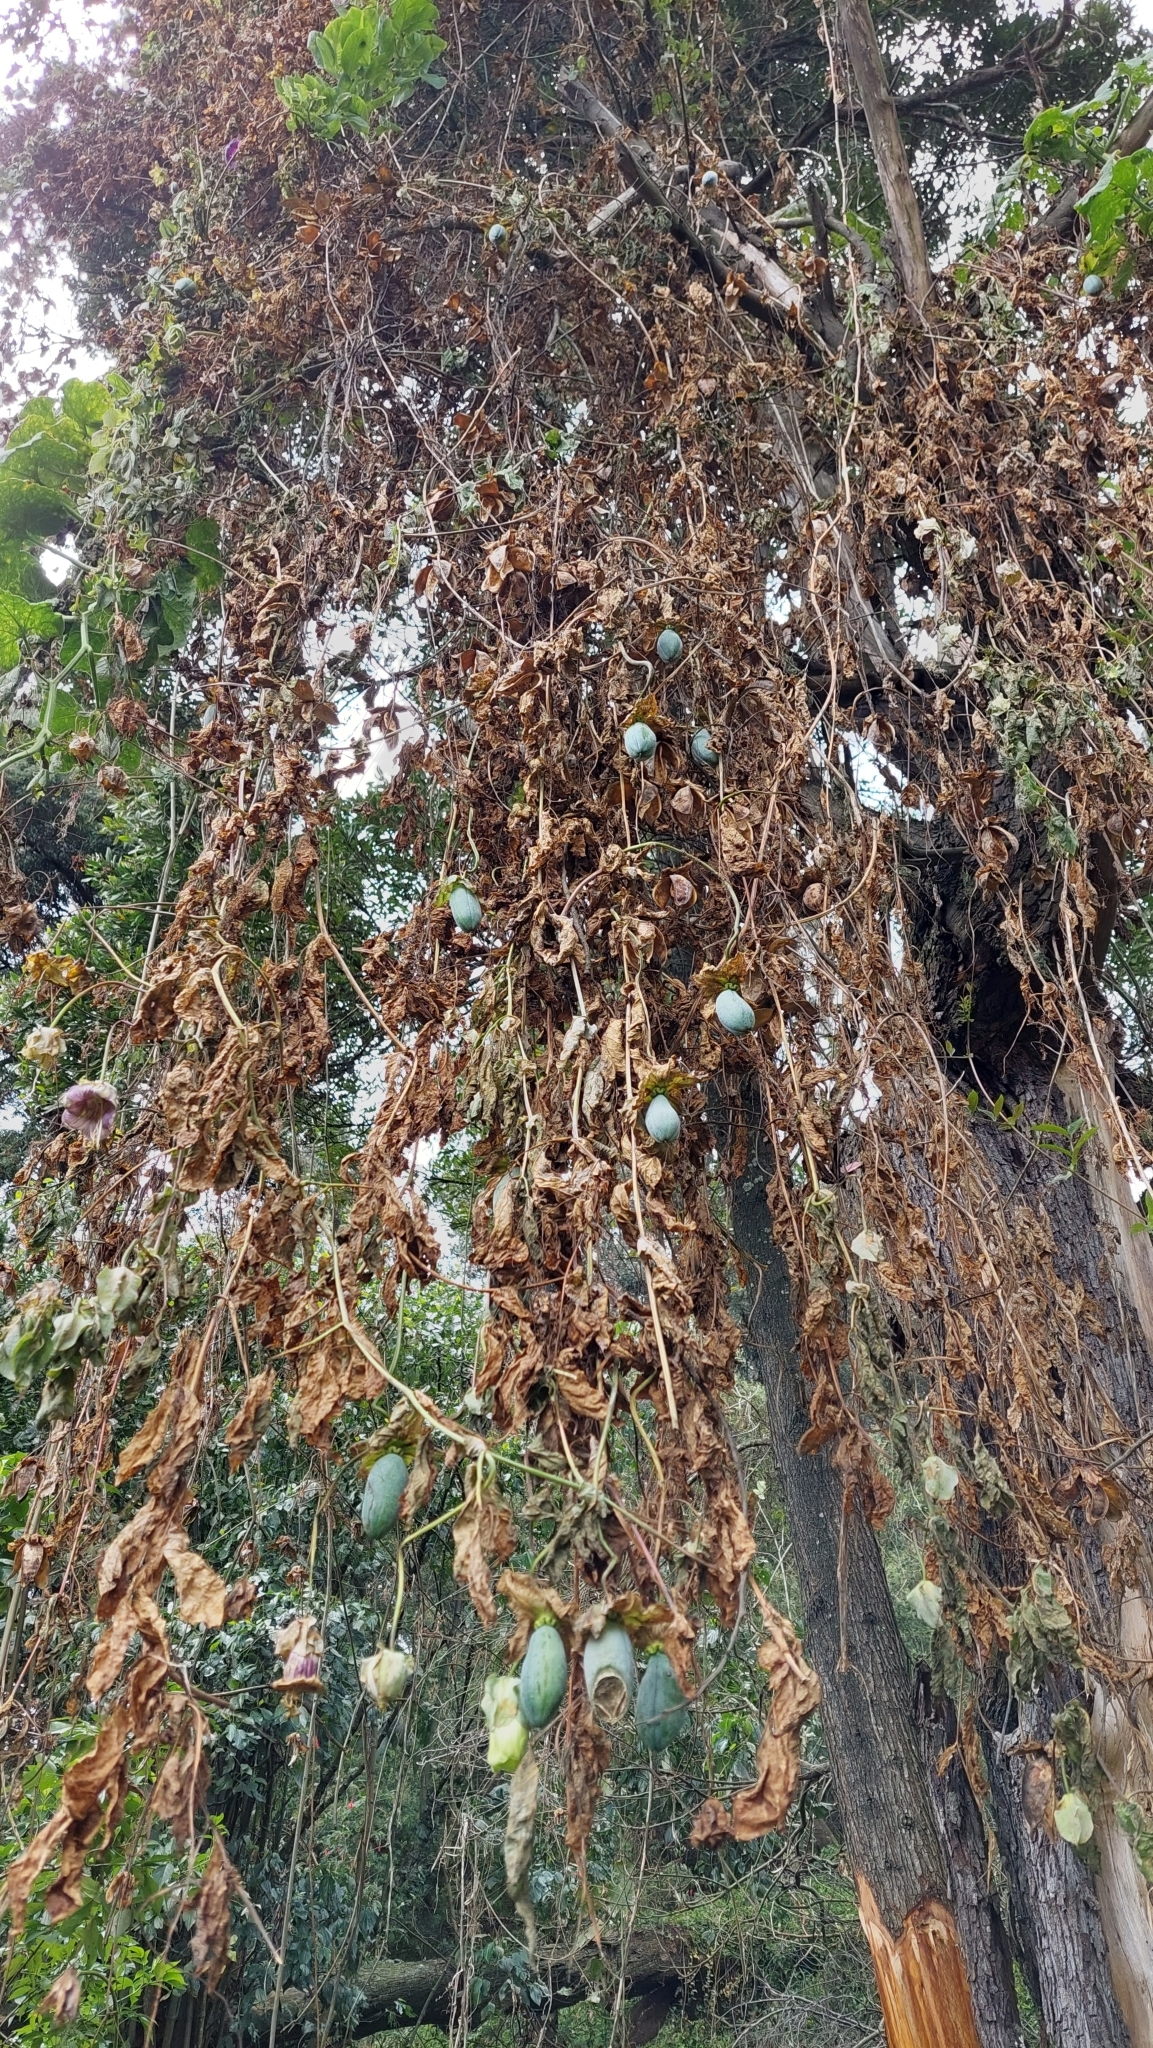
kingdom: Plantae
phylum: Tracheophyta
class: Magnoliopsida
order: Ericales
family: Polemoniaceae
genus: Cobaea
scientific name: Cobaea scandens
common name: Cup-and-saucer-vine
